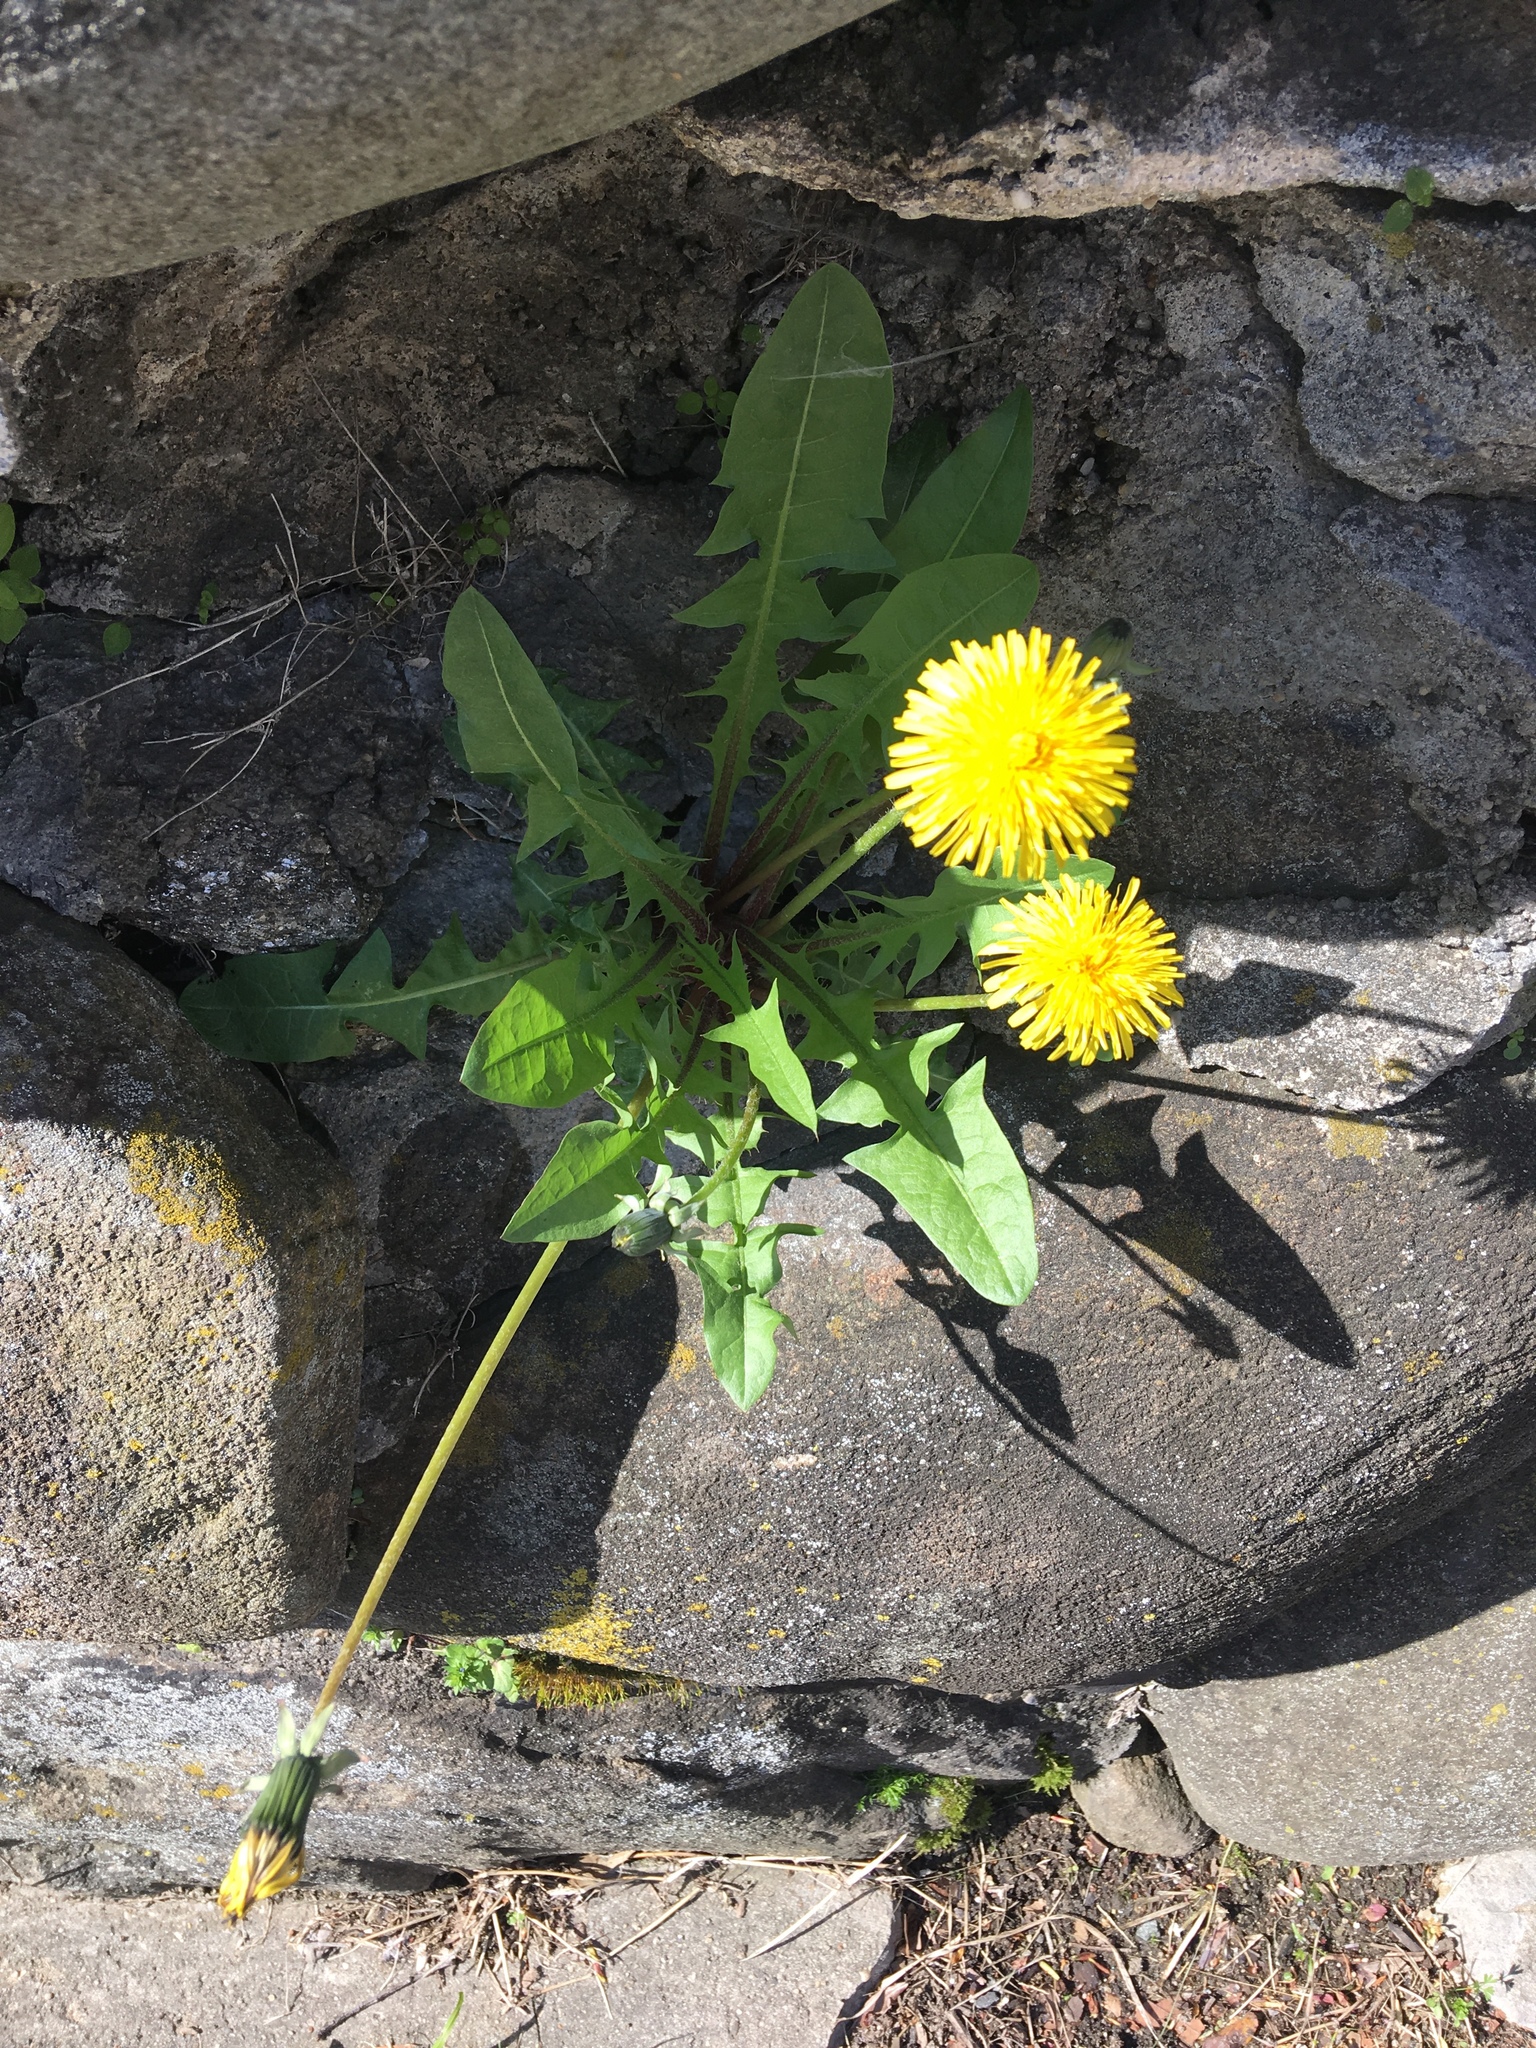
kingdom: Plantae
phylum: Tracheophyta
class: Magnoliopsida
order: Asterales
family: Asteraceae
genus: Taraxacum
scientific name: Taraxacum officinale
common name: Common dandelion
